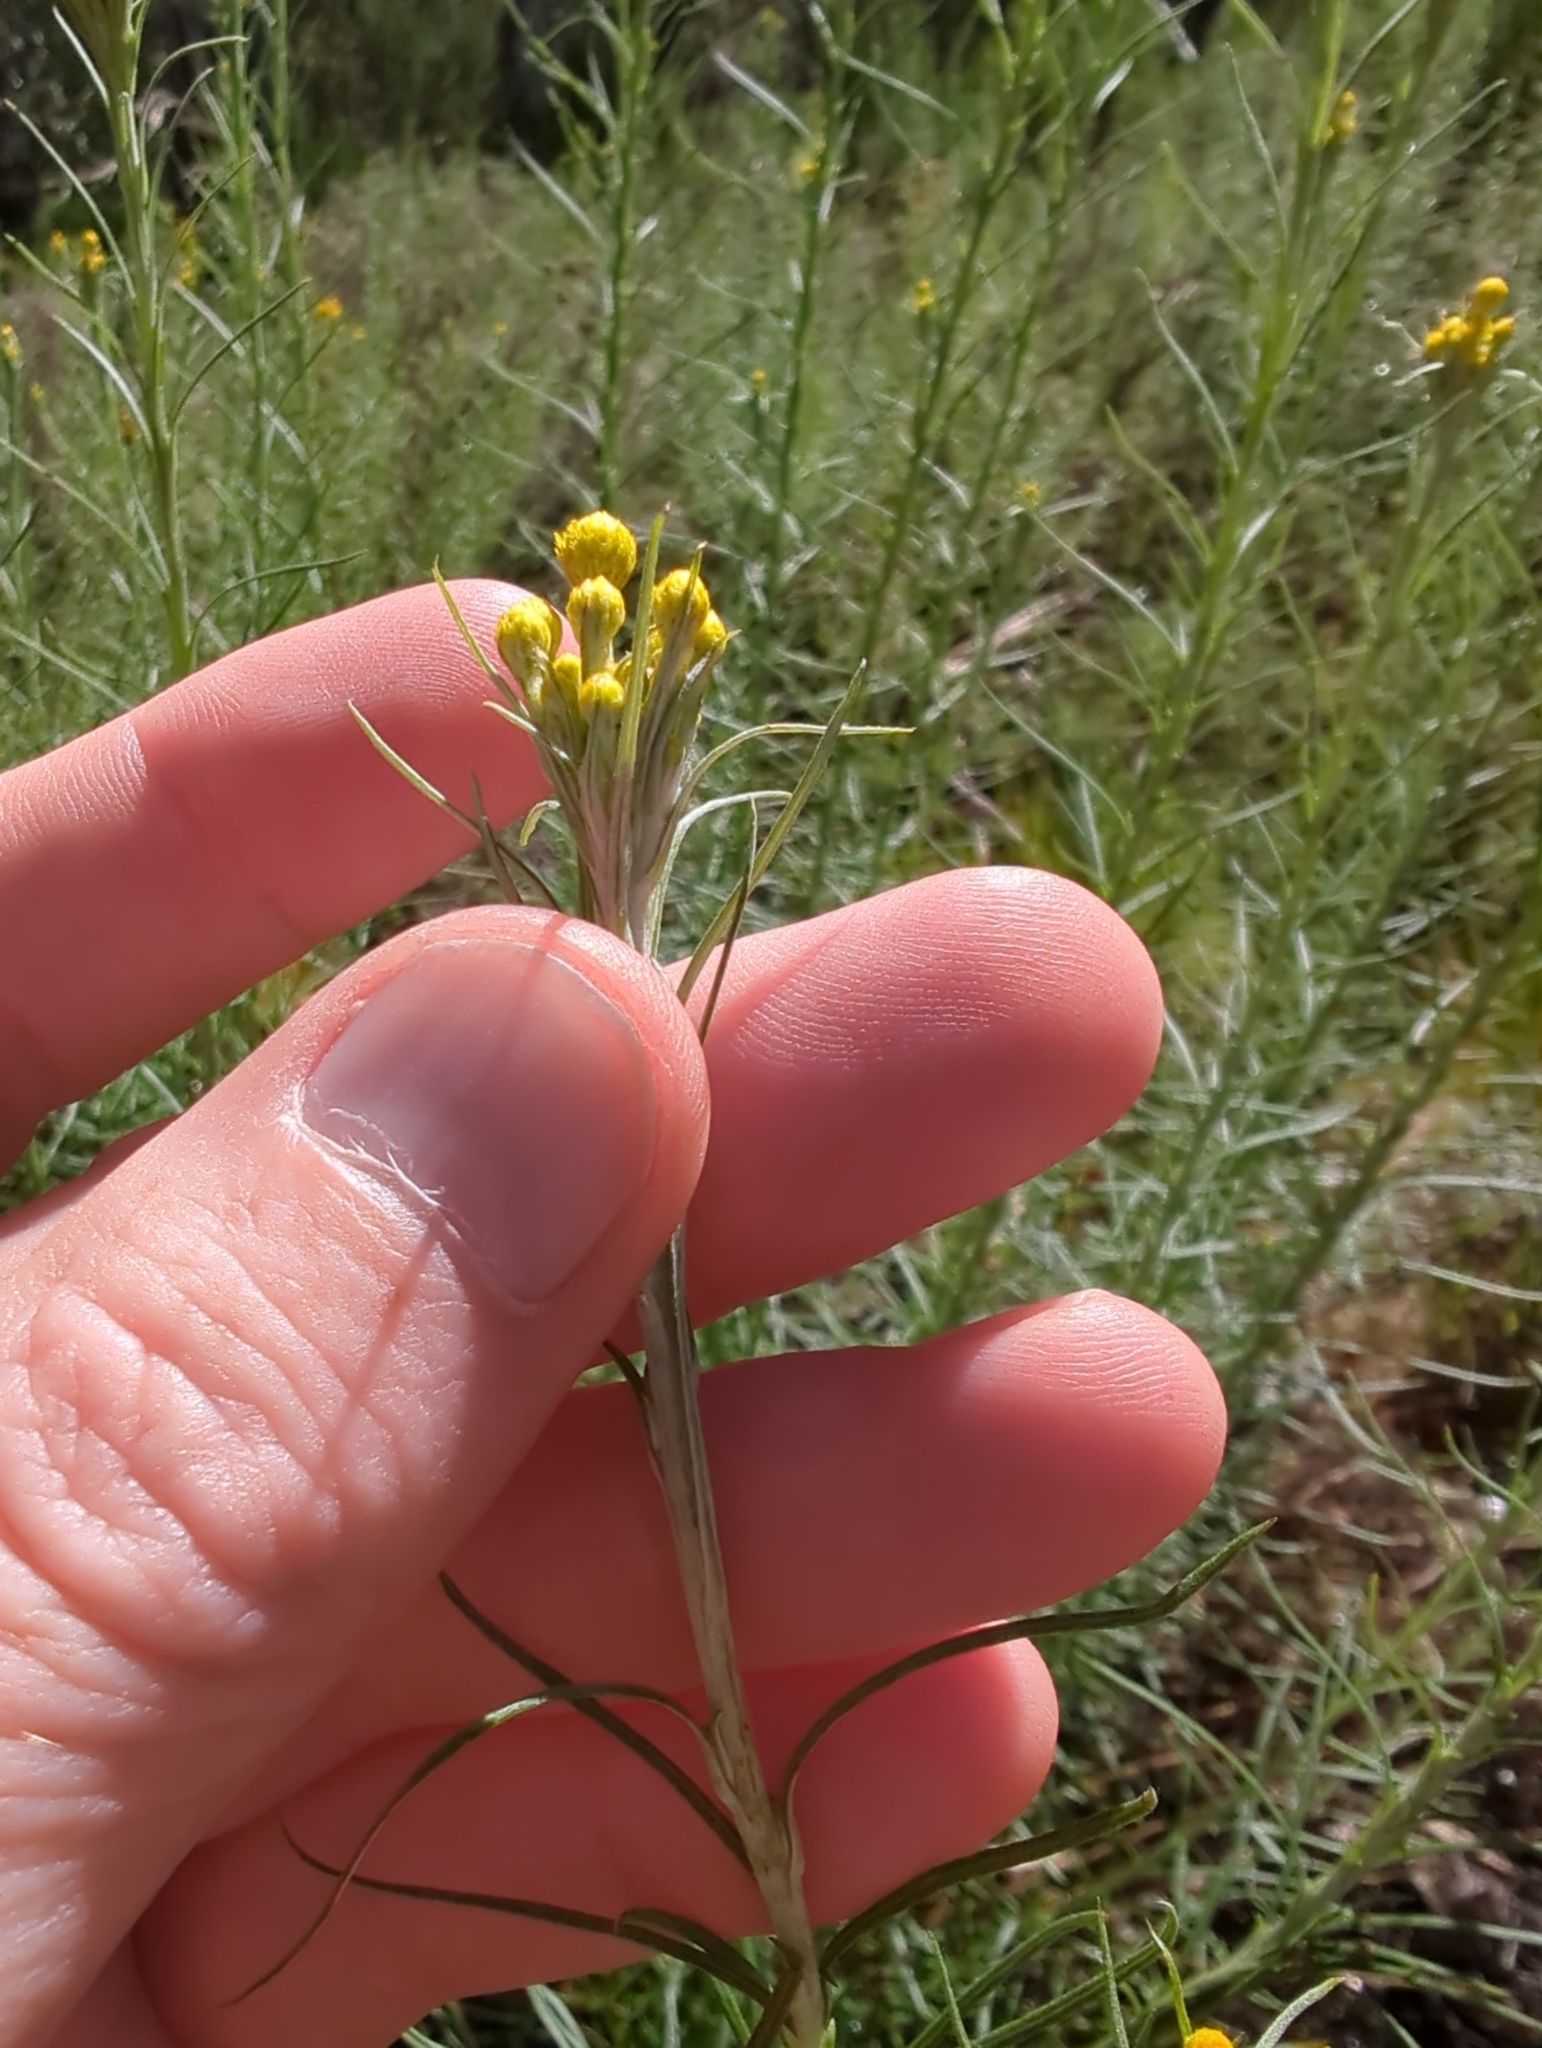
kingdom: Plantae
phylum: Tracheophyta
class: Magnoliopsida
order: Asterales
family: Asteraceae
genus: Chrysocephalum
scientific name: Chrysocephalum semipapposum
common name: Clustered everlasting
